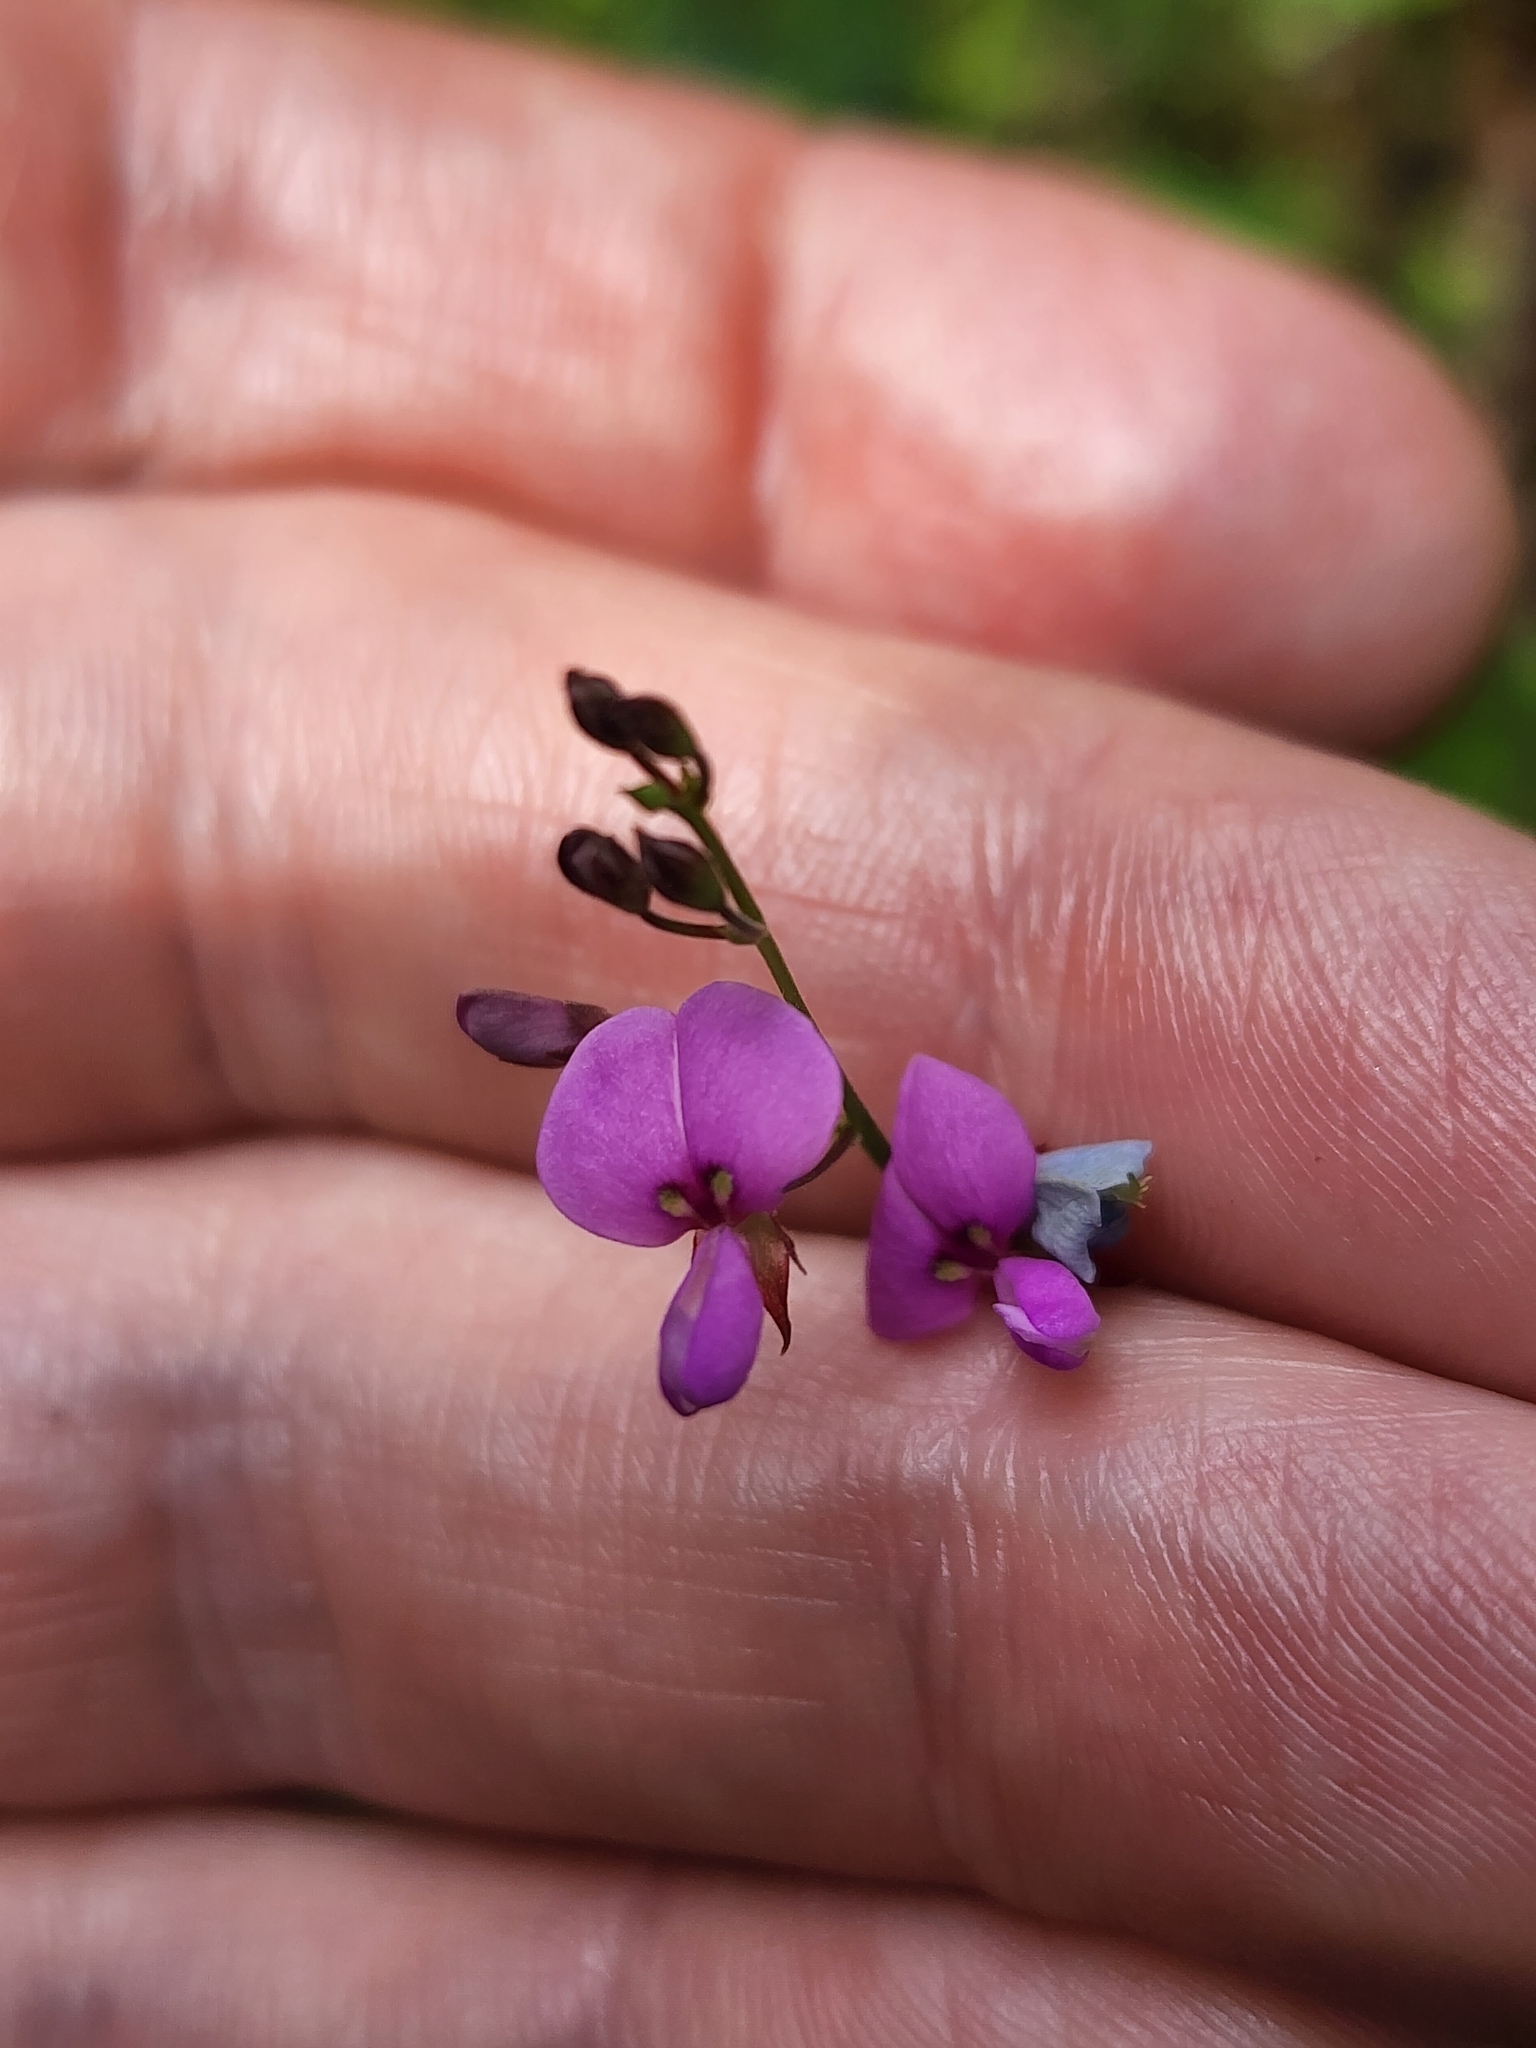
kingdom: Plantae
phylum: Tracheophyta
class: Magnoliopsida
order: Fabales
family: Fabaceae
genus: Desmodium
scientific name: Desmodium paniculatum
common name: Panicled tick-clover
